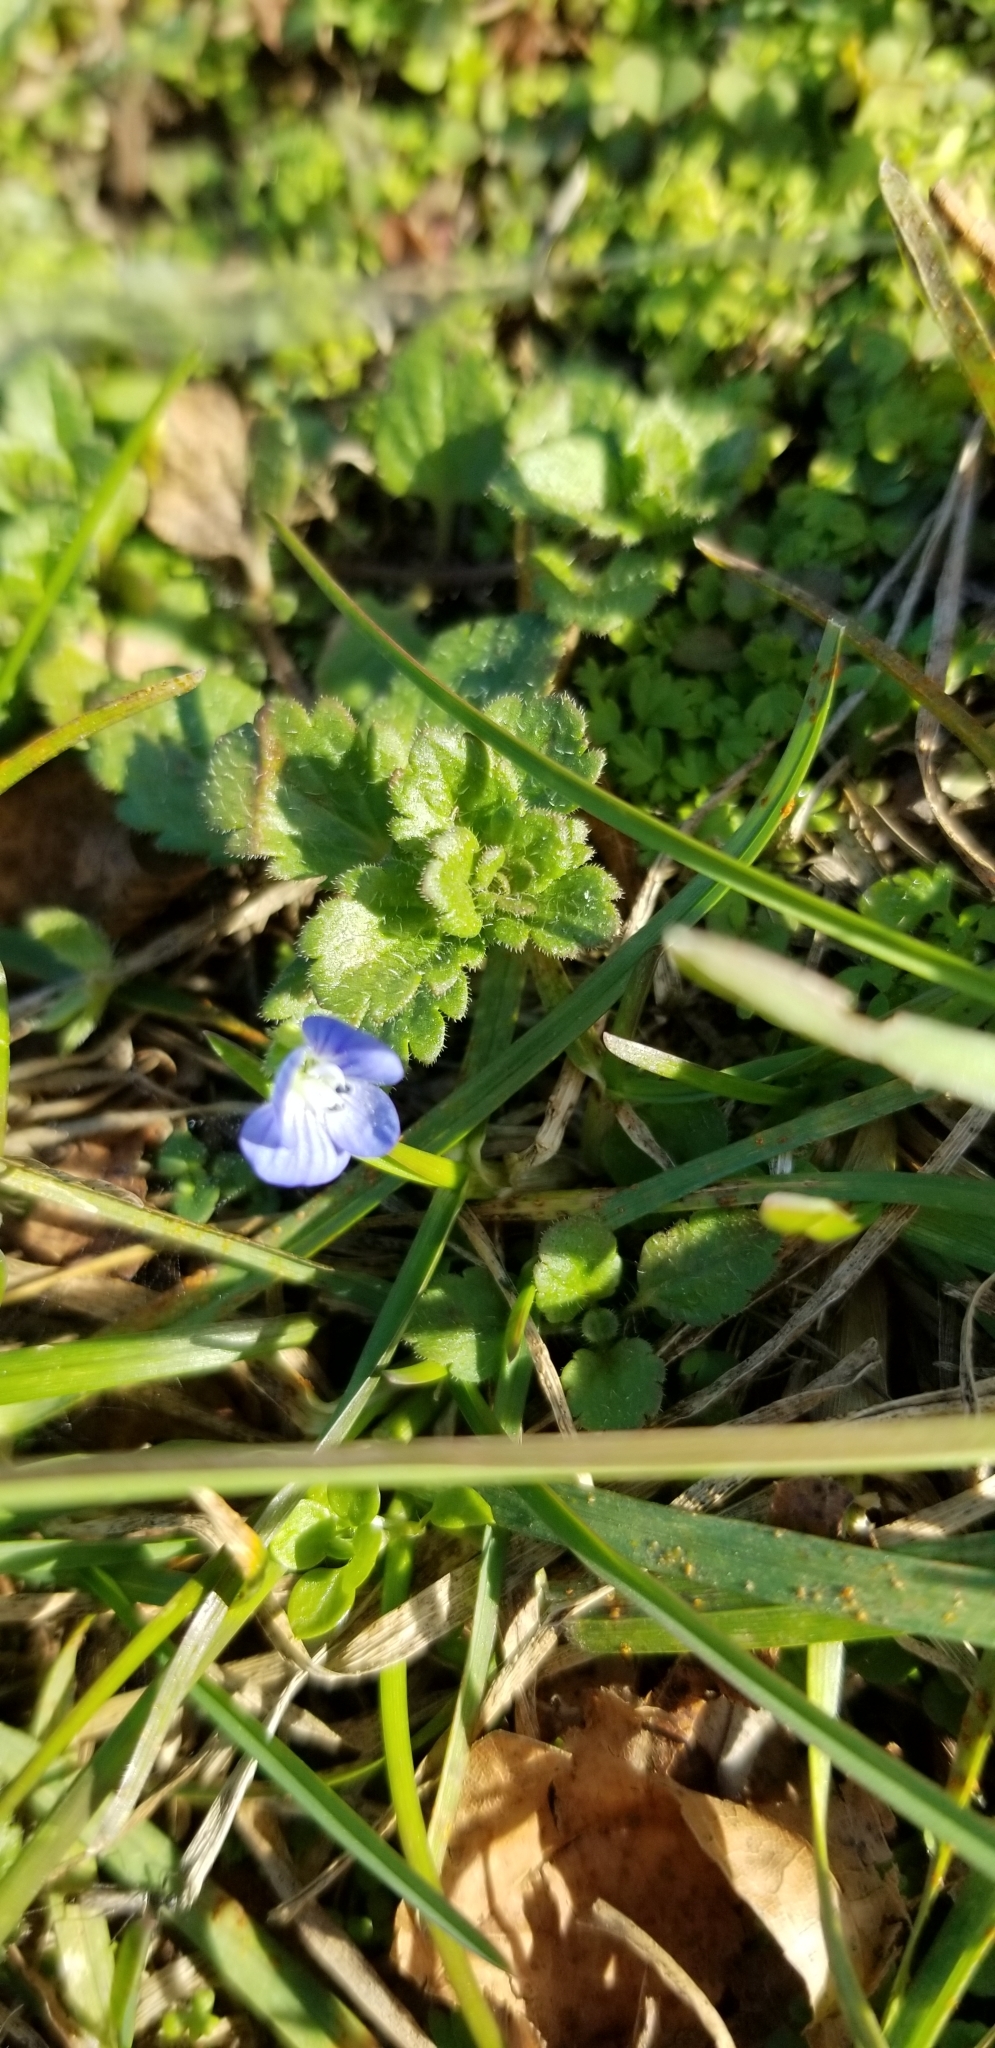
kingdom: Plantae
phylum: Tracheophyta
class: Magnoliopsida
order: Lamiales
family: Plantaginaceae
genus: Veronica
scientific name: Veronica persica
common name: Common field-speedwell
